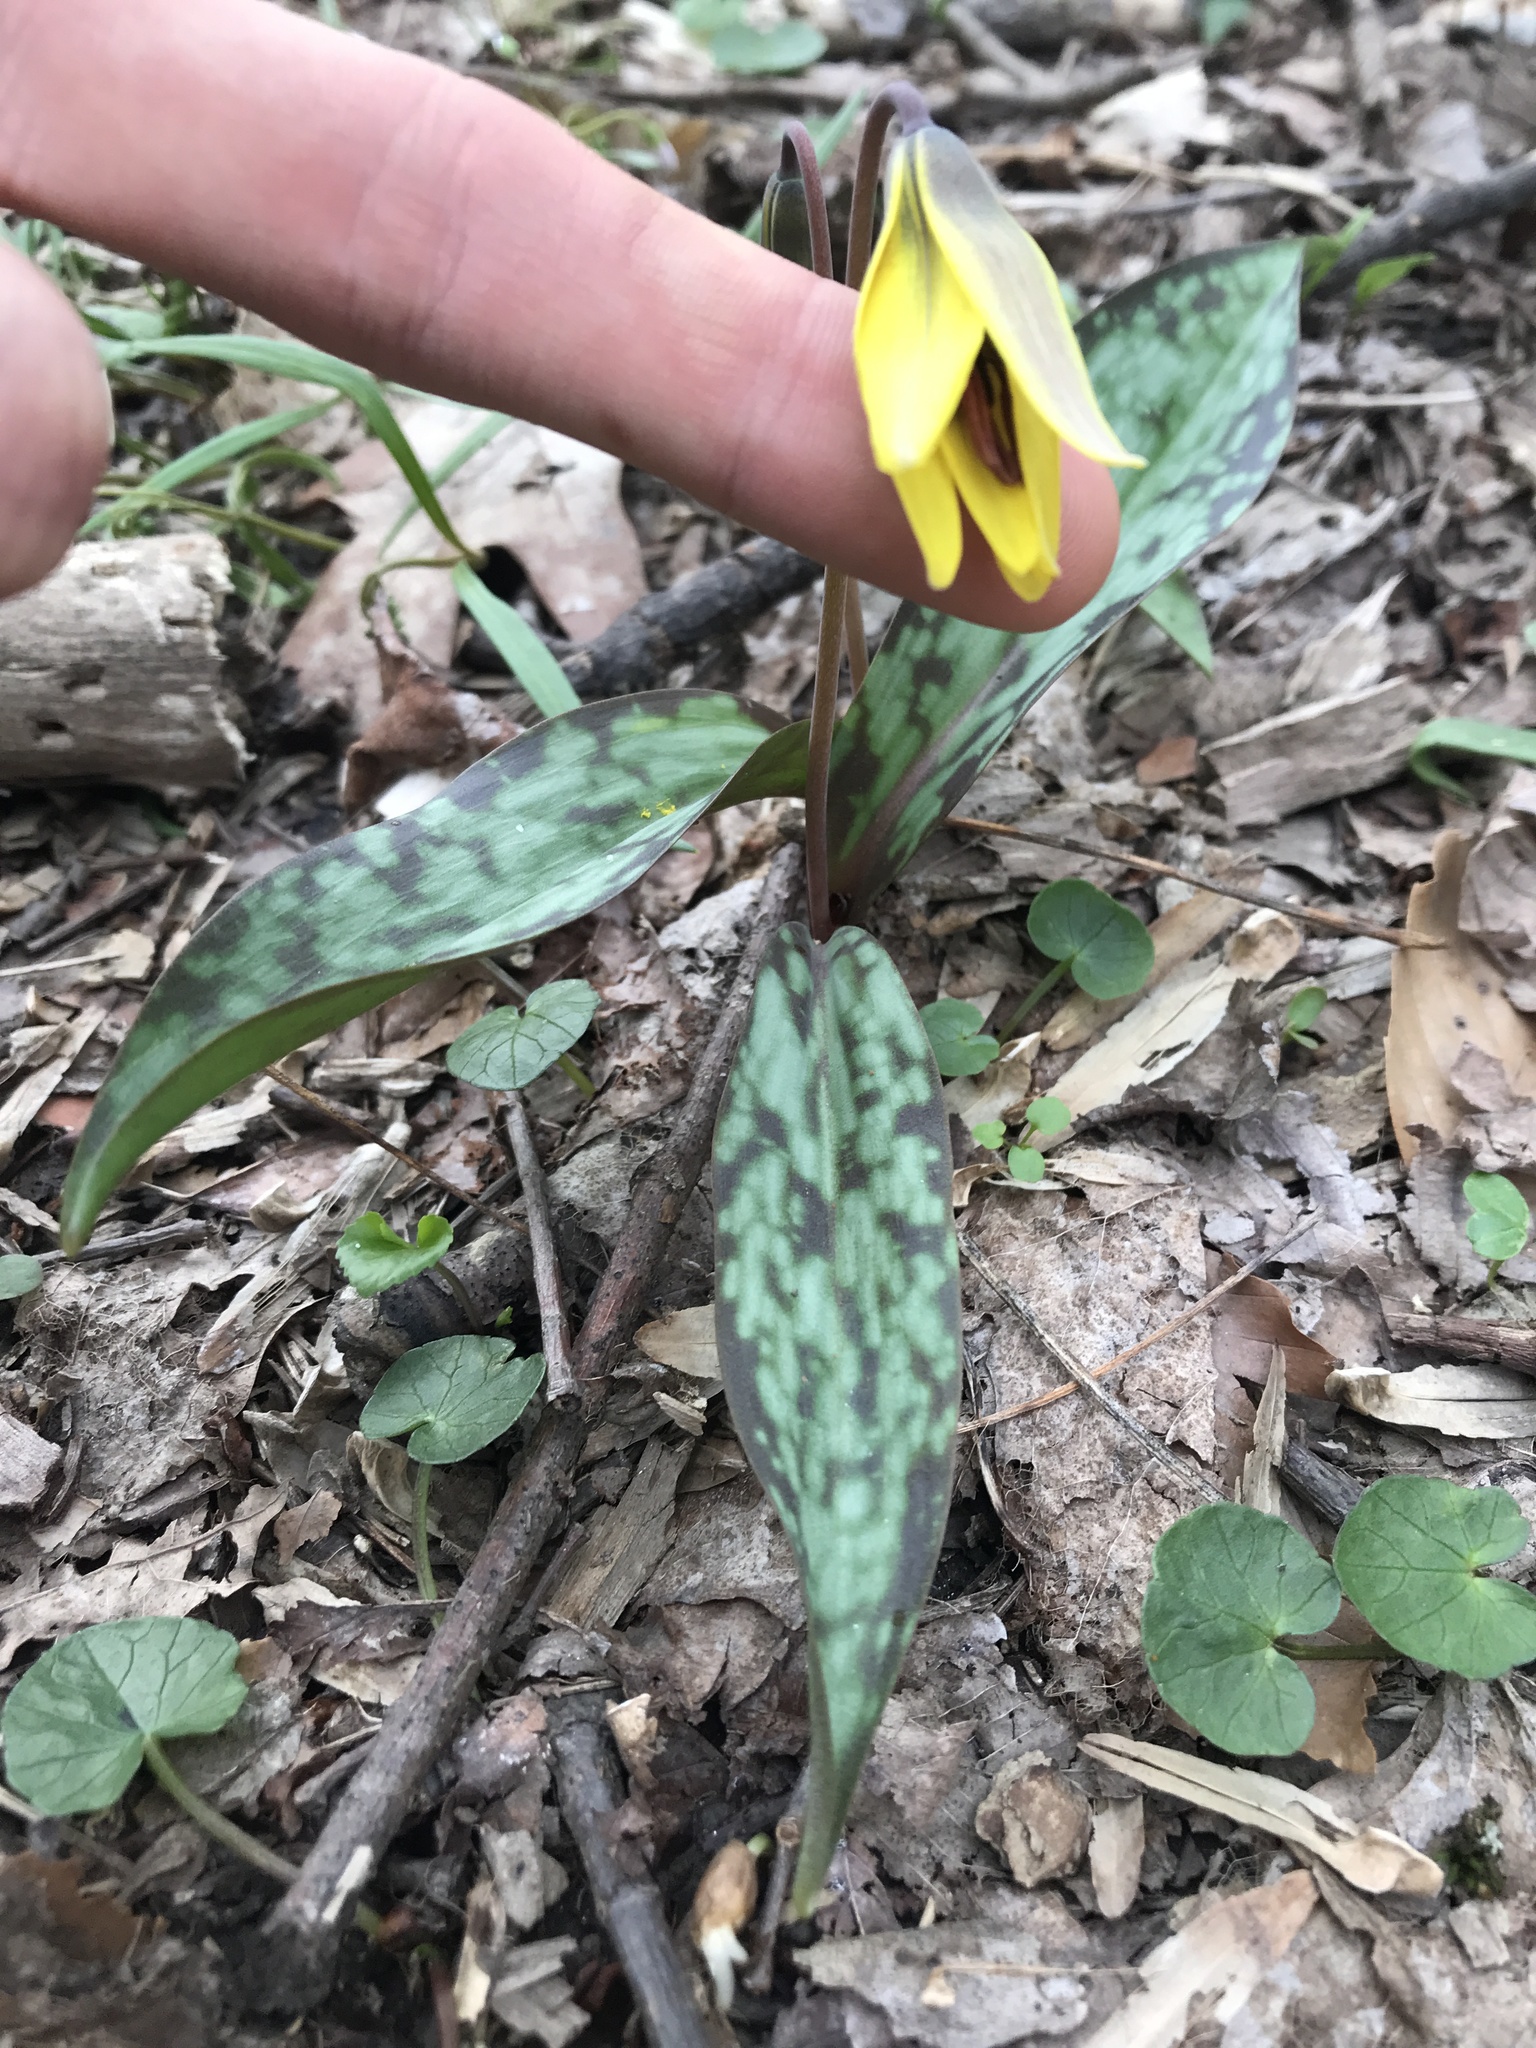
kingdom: Plantae
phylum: Tracheophyta
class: Liliopsida
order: Liliales
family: Liliaceae
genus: Erythronium
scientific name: Erythronium americanum
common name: Yellow adder's-tongue
